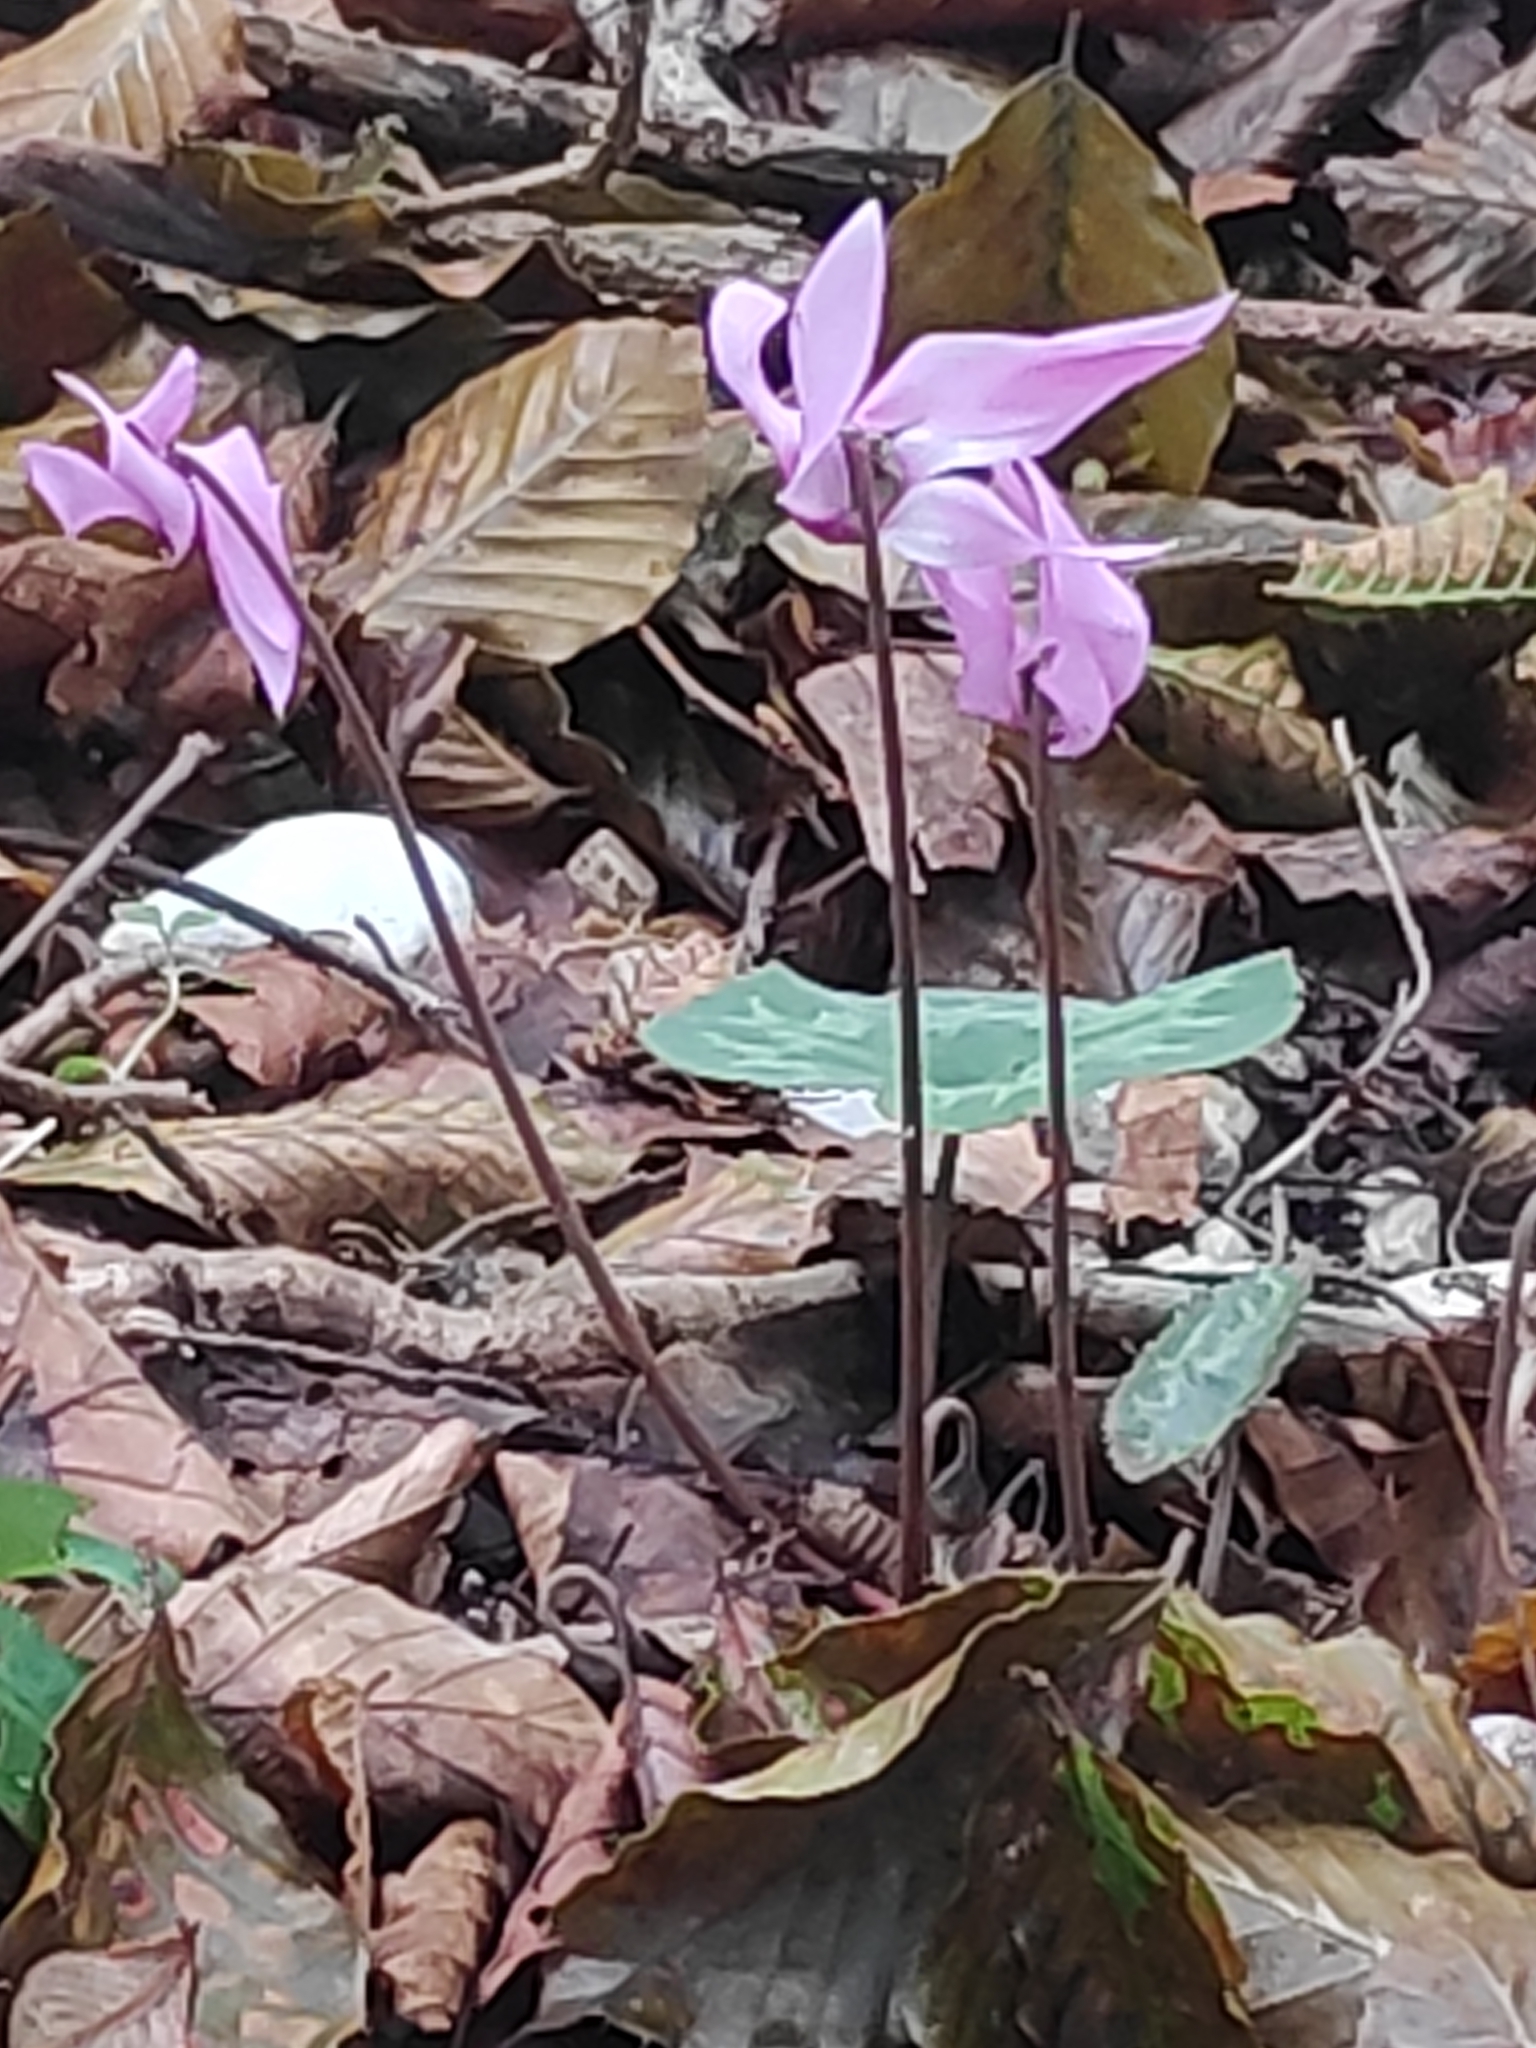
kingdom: Plantae
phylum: Tracheophyta
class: Magnoliopsida
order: Ericales
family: Primulaceae
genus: Cyclamen
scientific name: Cyclamen purpurascens
